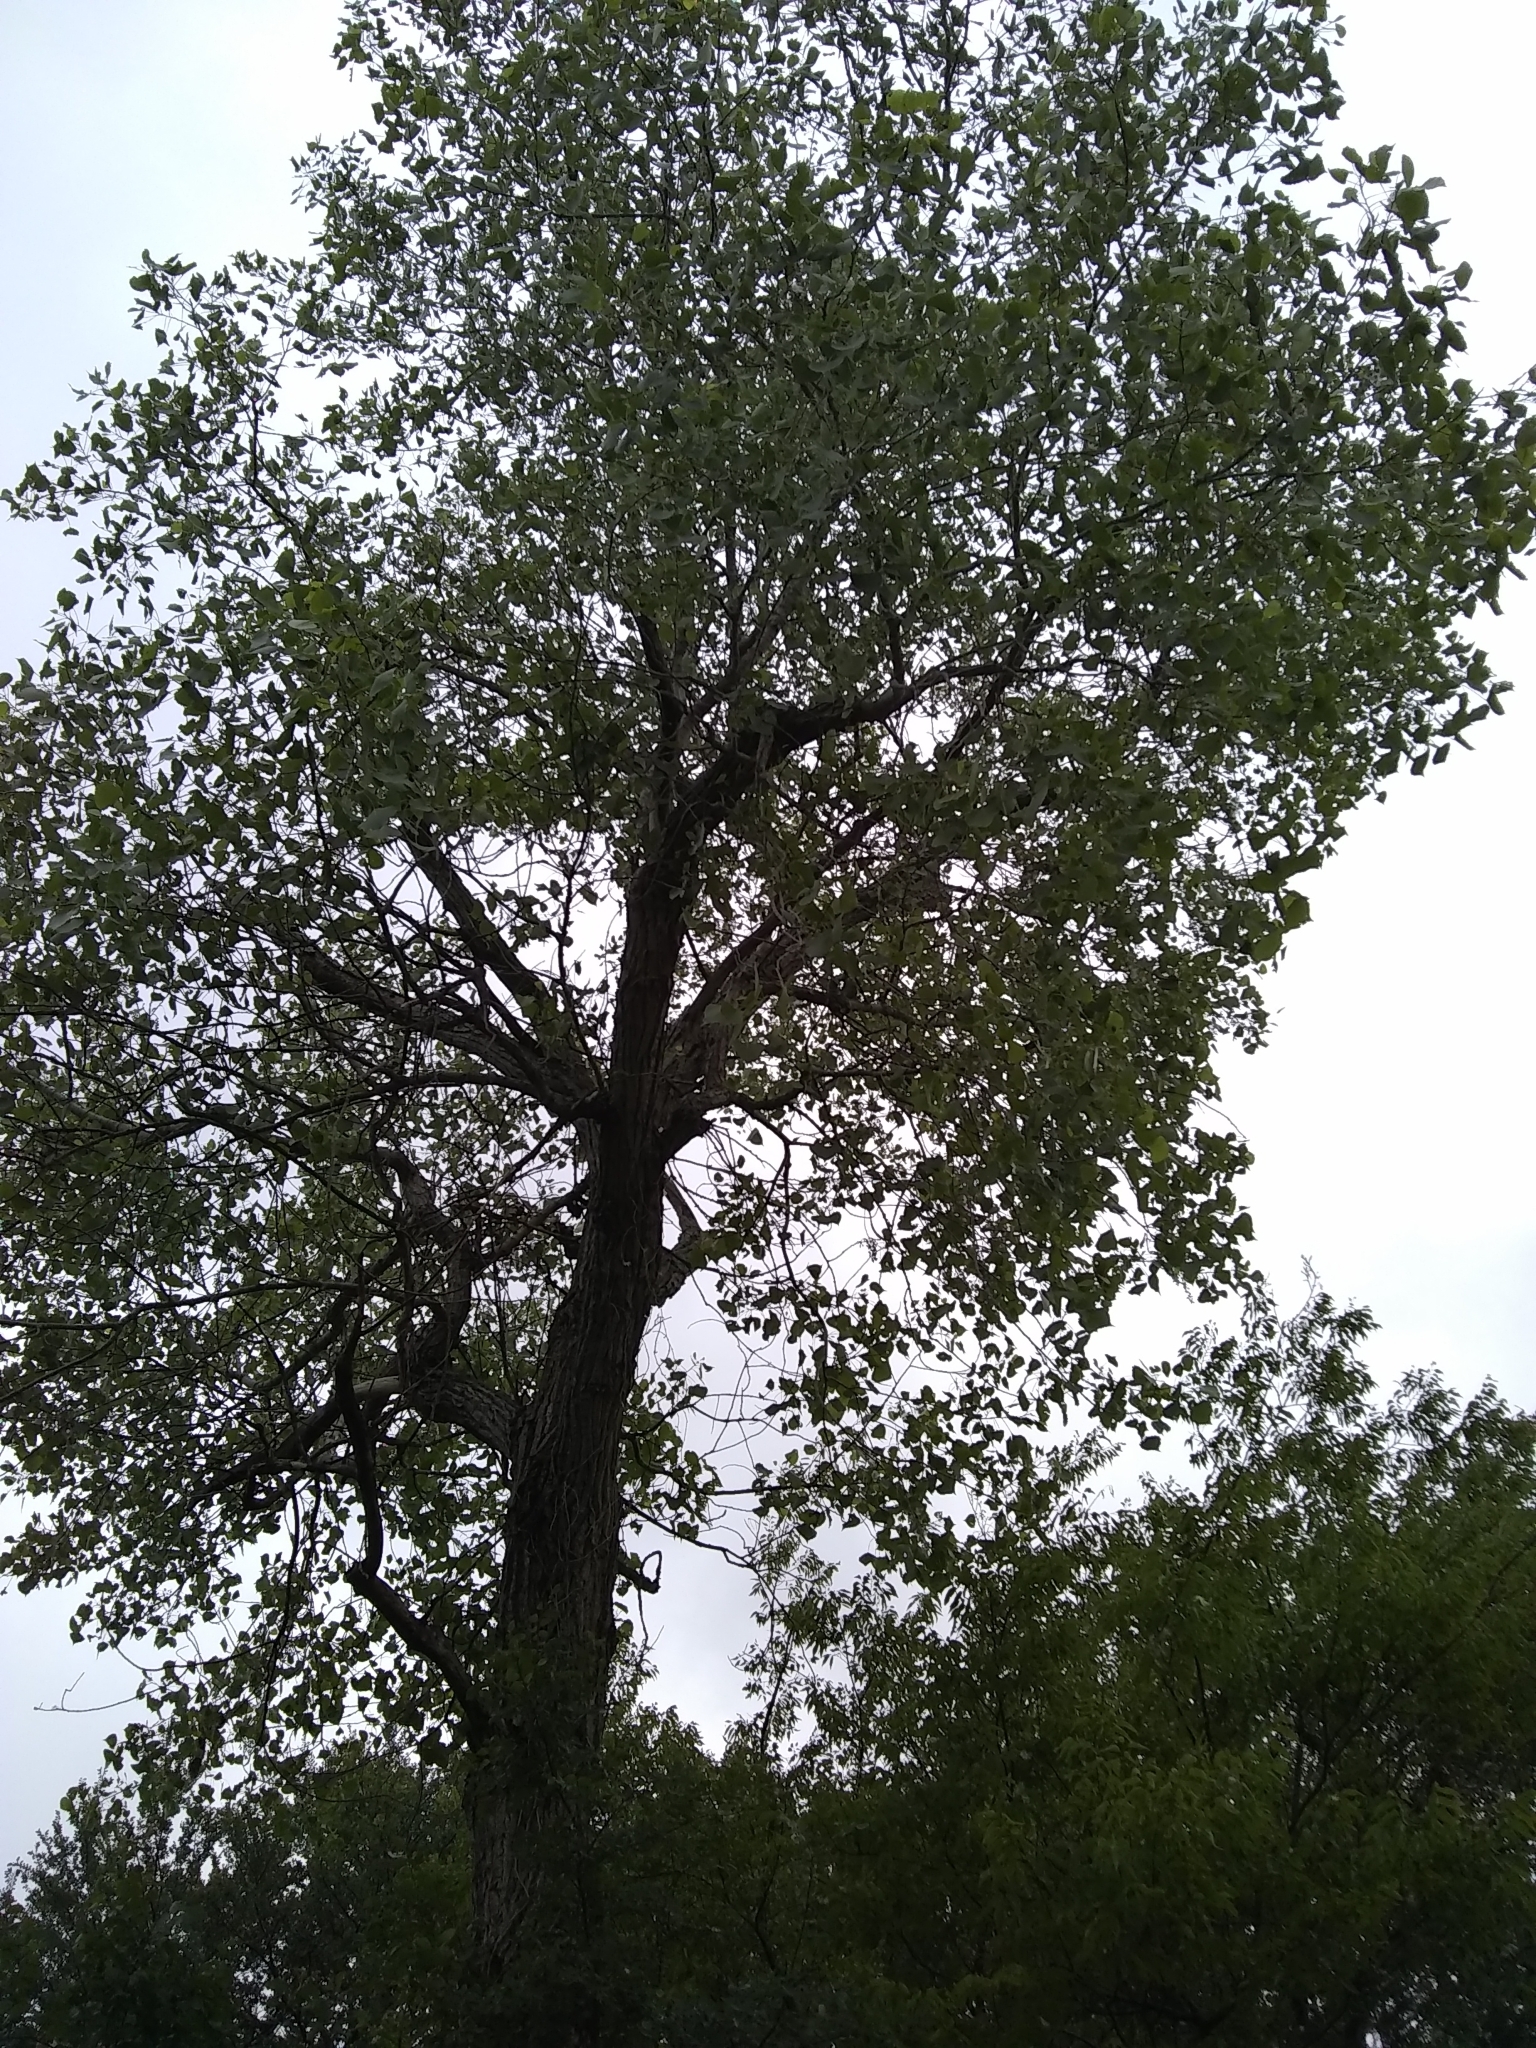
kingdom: Plantae
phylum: Tracheophyta
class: Magnoliopsida
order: Malpighiales
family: Salicaceae
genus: Populus
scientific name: Populus deltoides
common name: Eastern cottonwood
